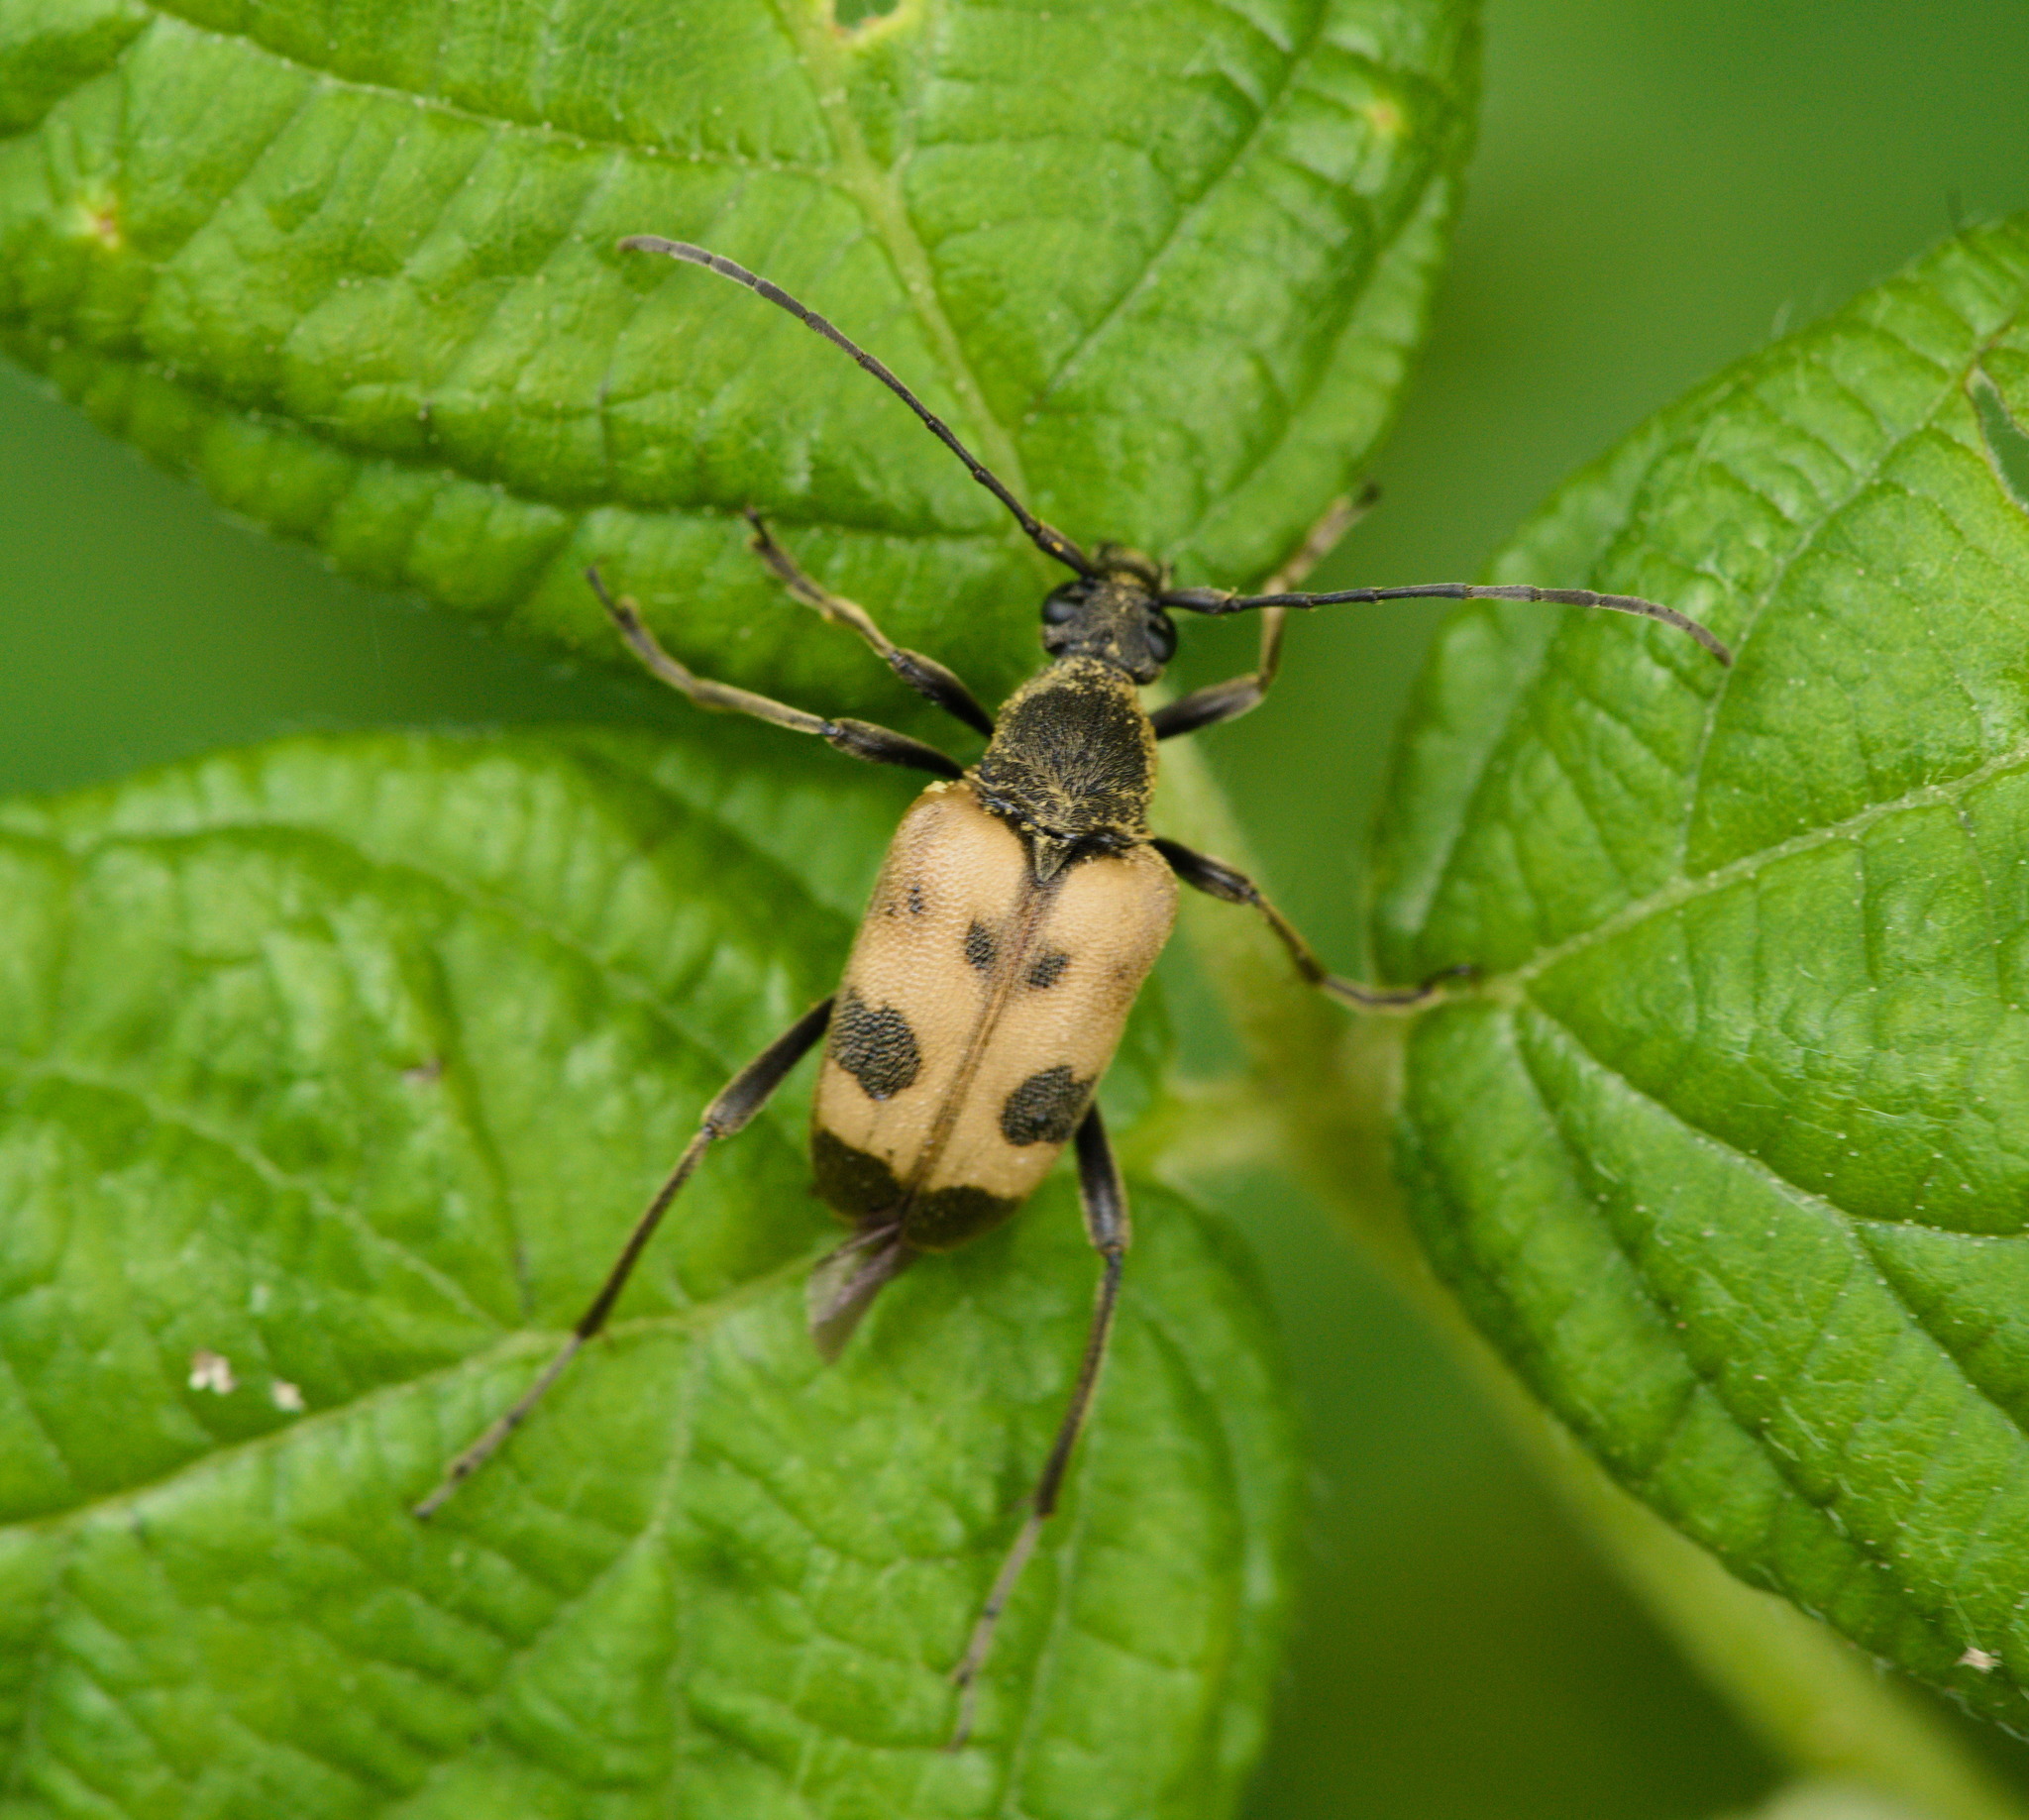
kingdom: Animalia
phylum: Arthropoda
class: Insecta
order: Coleoptera
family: Cerambycidae
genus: Pachytodes
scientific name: Pachytodes cerambyciformis
